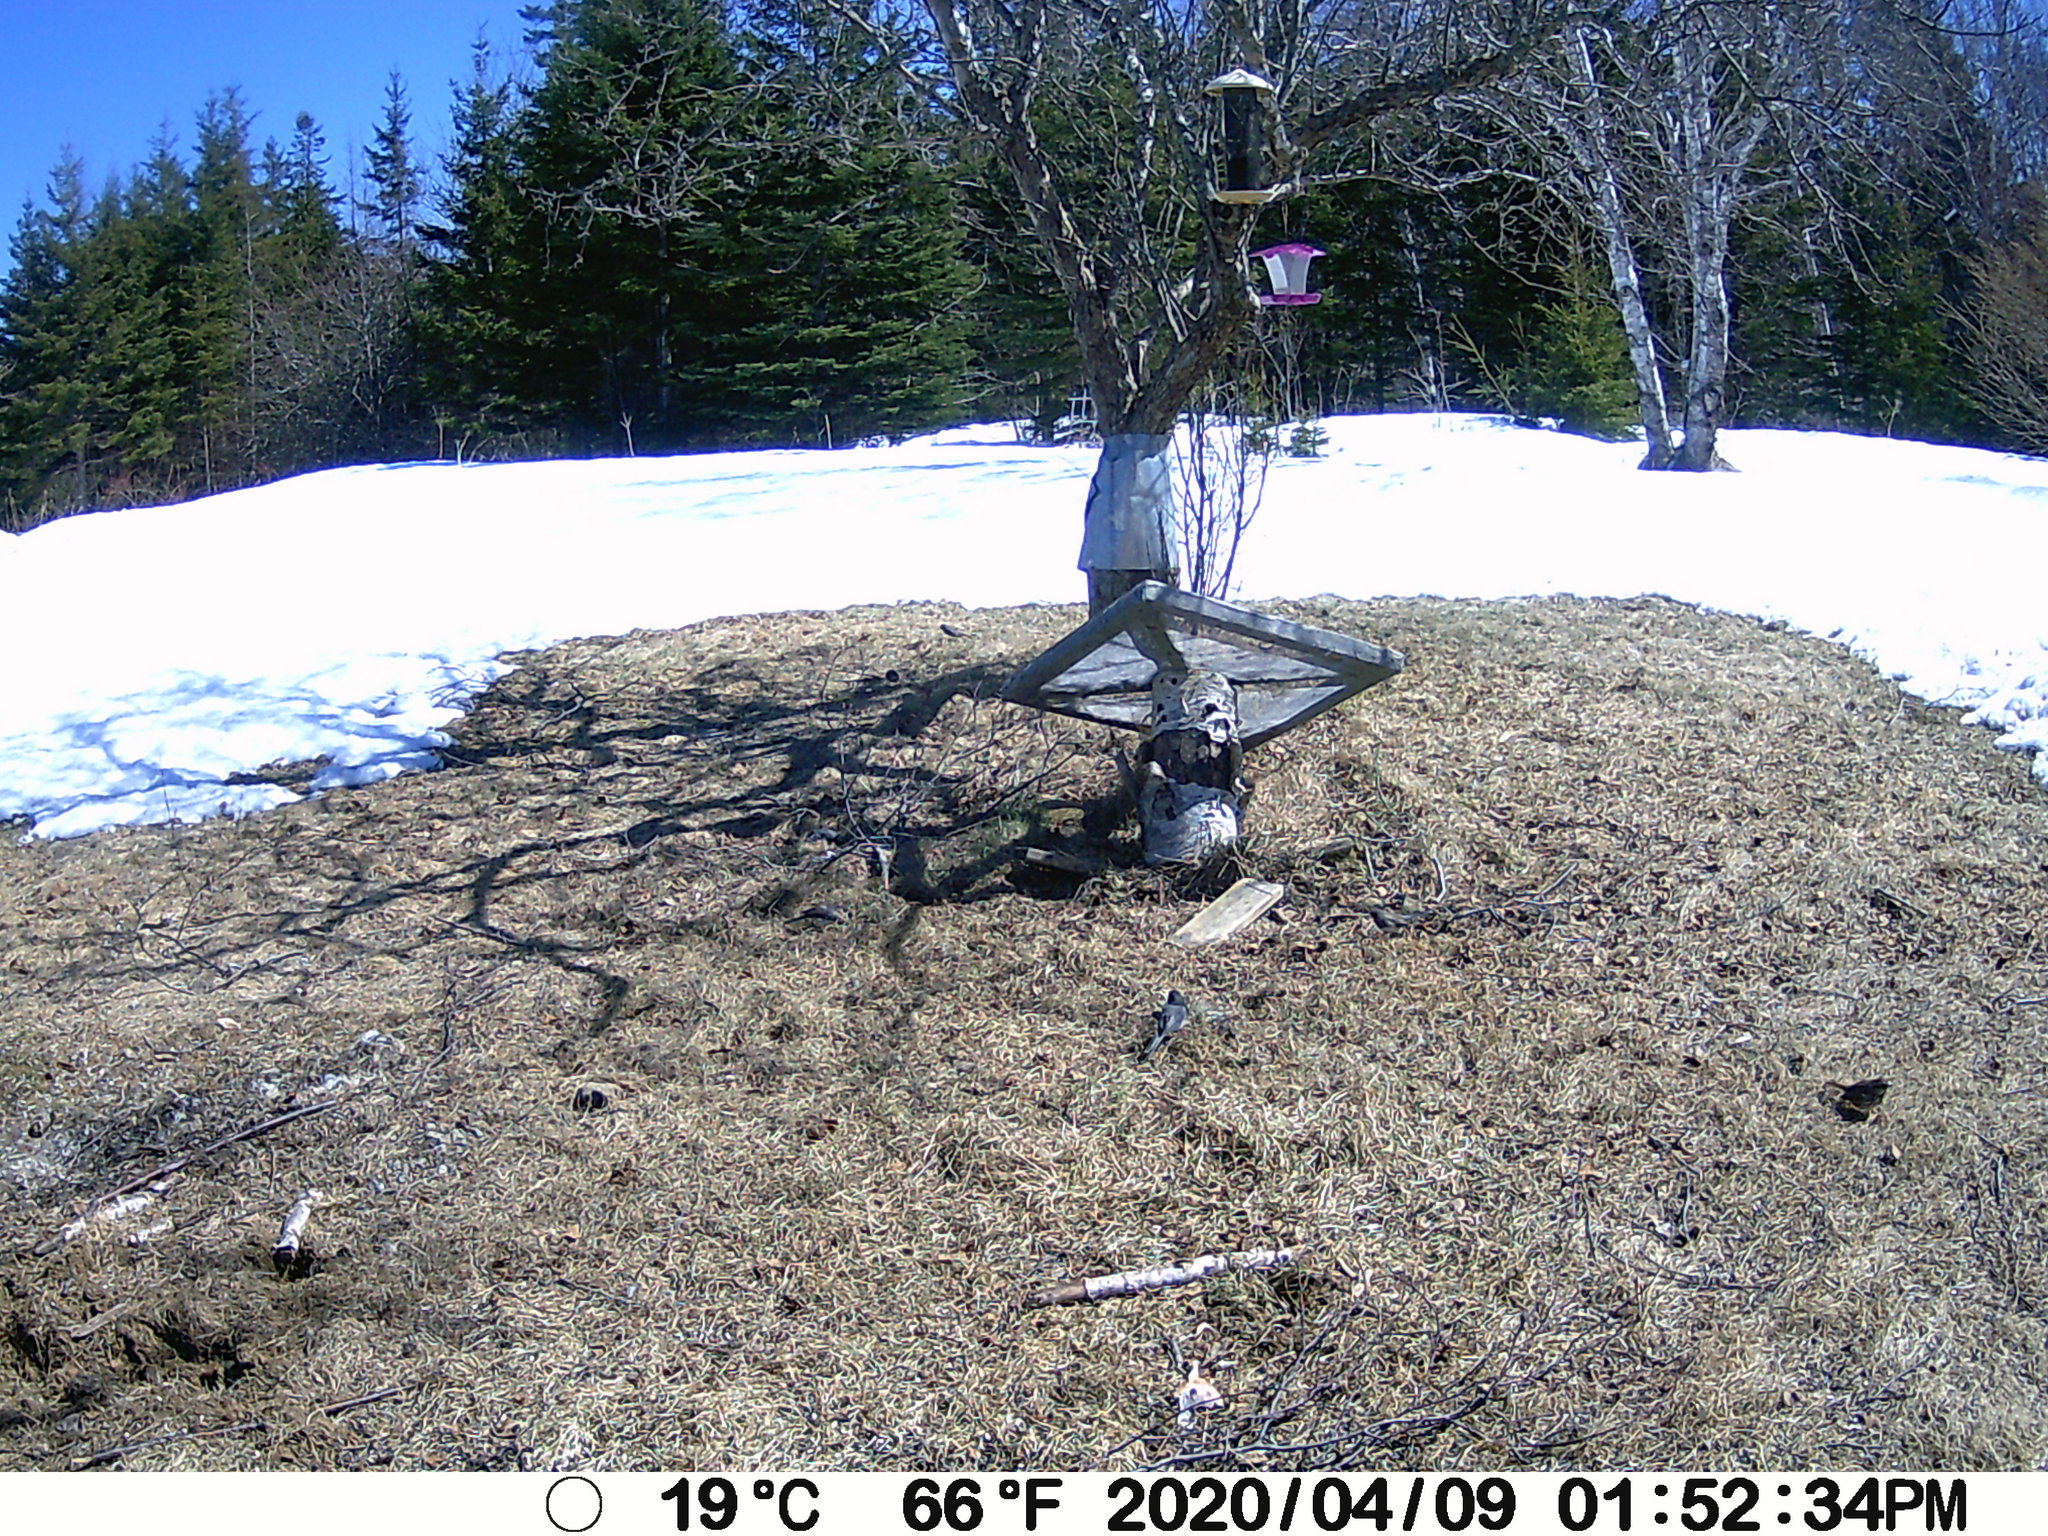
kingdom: Animalia
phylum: Chordata
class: Aves
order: Passeriformes
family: Passerellidae
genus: Melospiza
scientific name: Melospiza melodia
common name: Song sparrow
